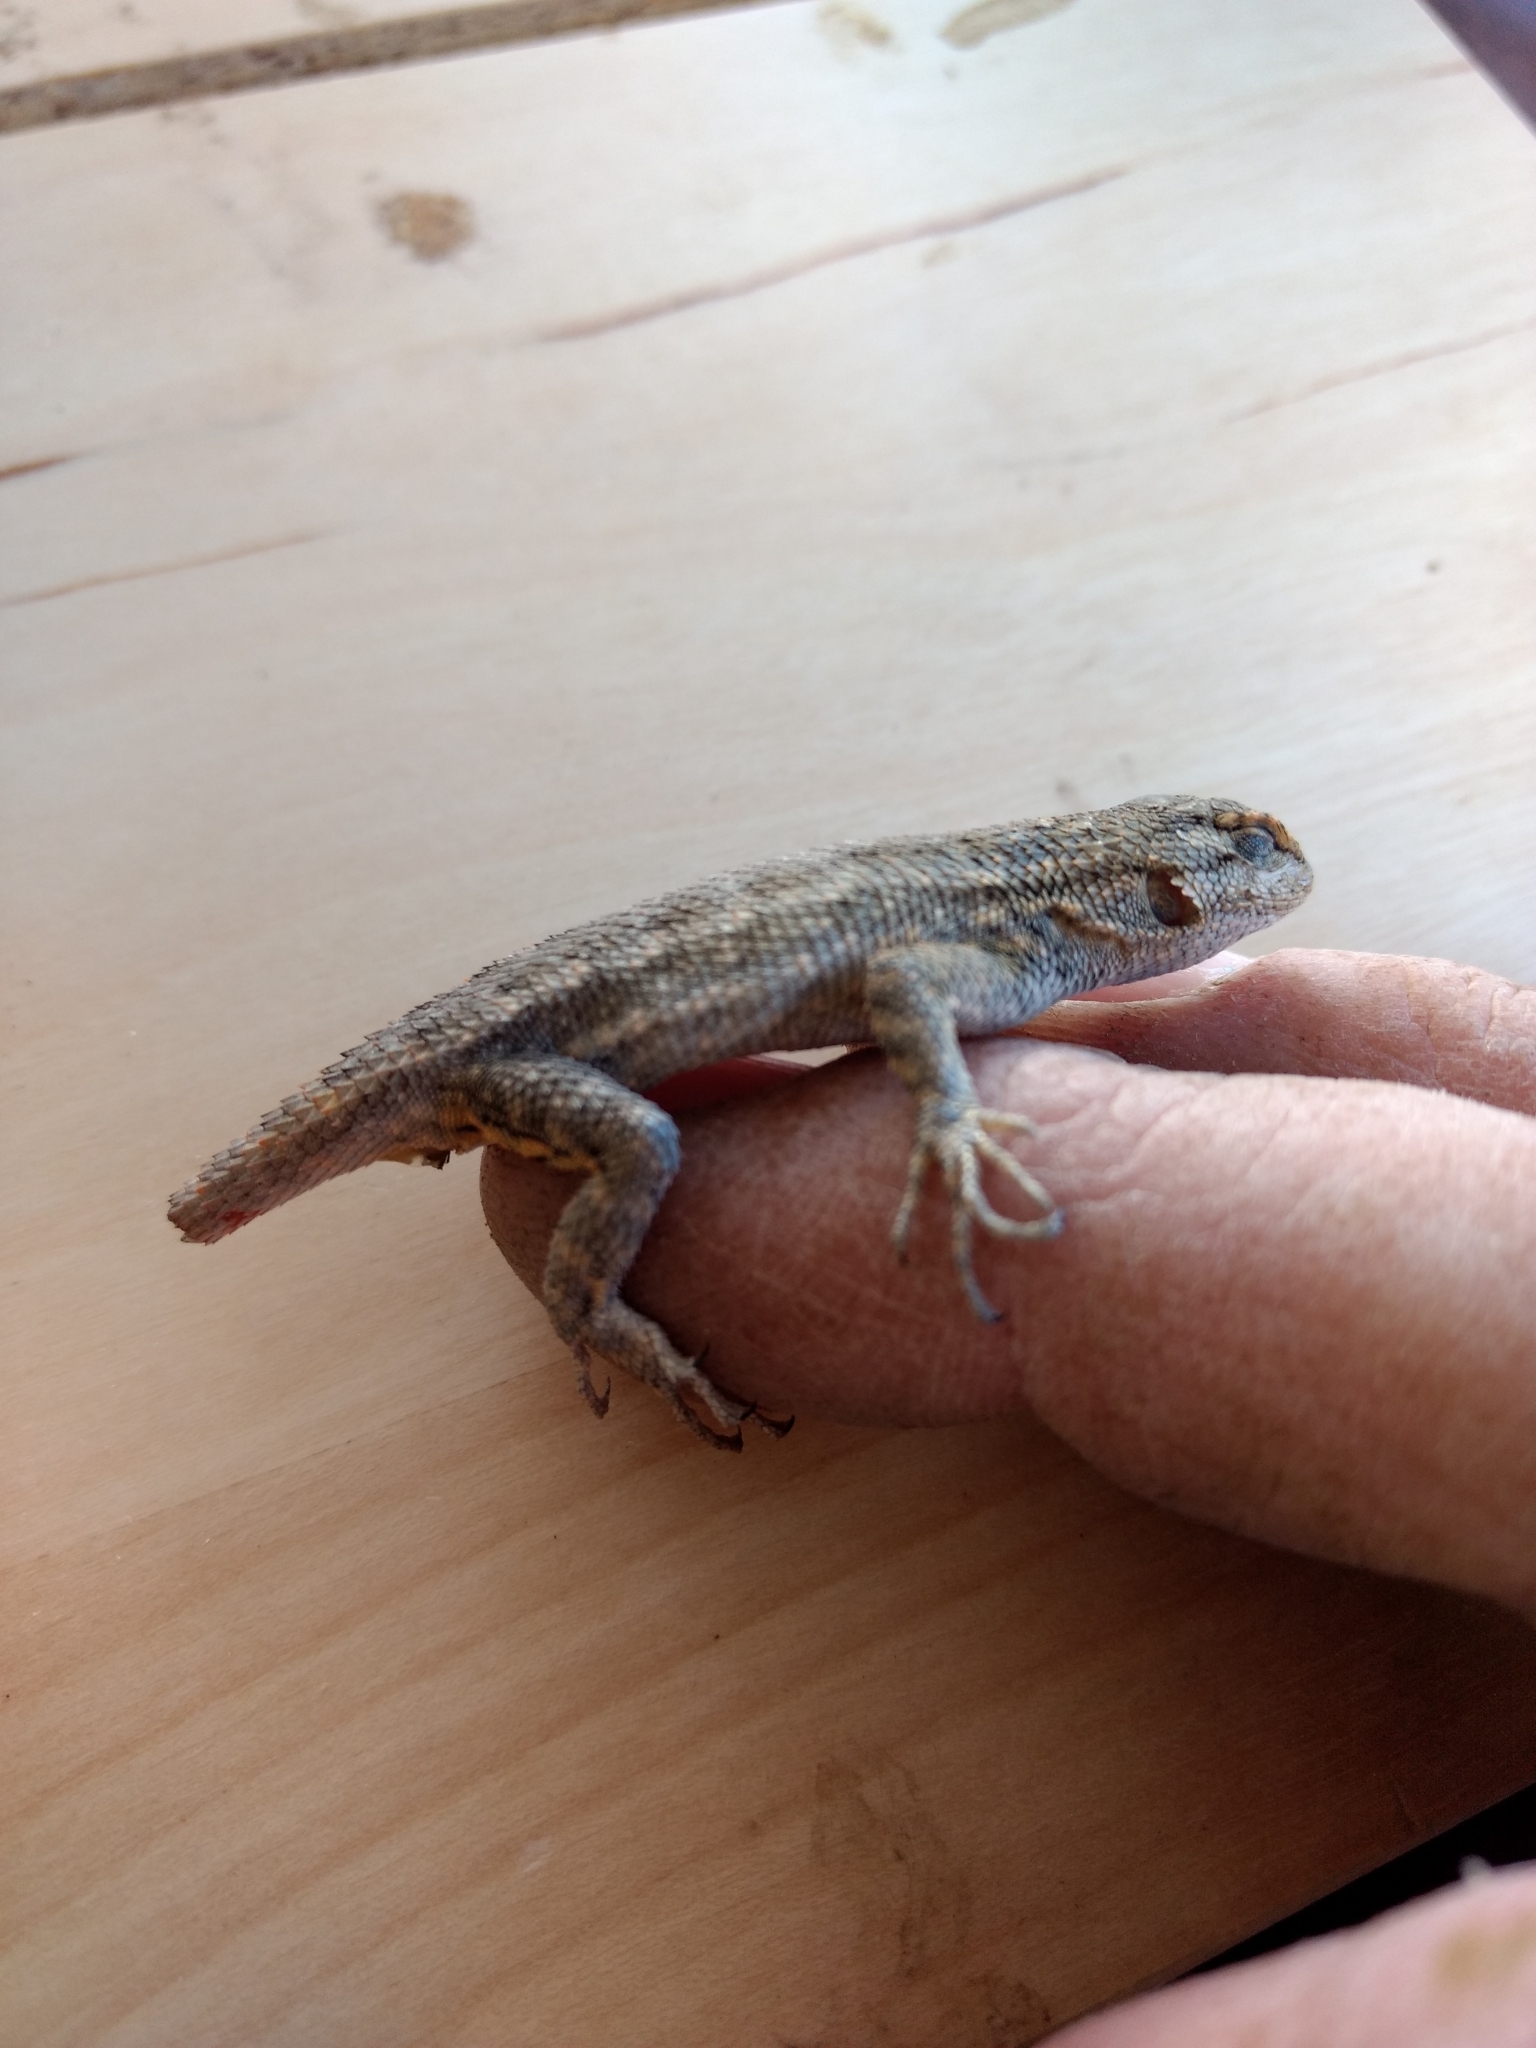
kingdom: Animalia
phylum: Chordata
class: Squamata
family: Phrynosomatidae
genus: Sceloporus
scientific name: Sceloporus occidentalis
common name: Western fence lizard
